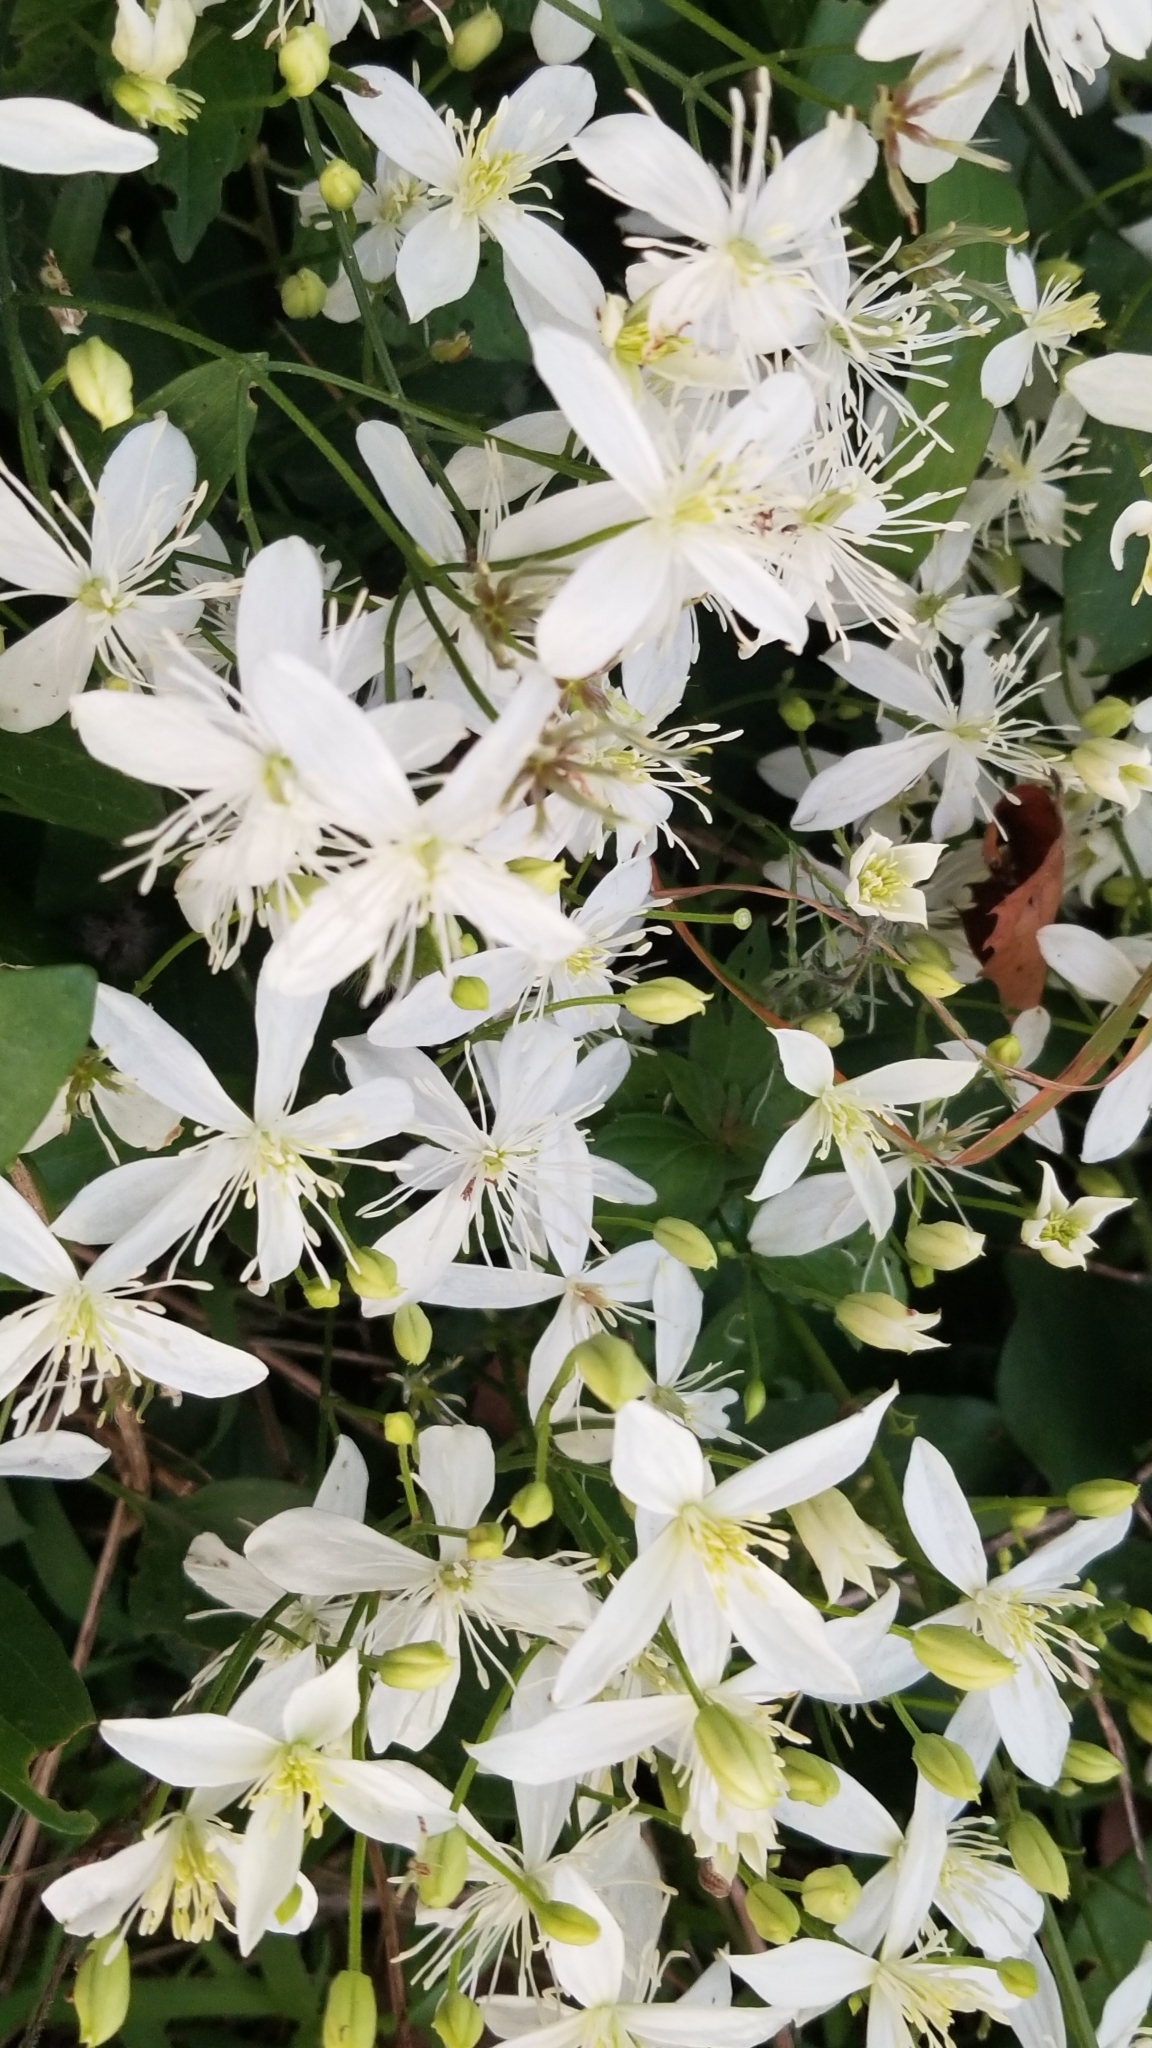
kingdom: Plantae
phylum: Tracheophyta
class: Magnoliopsida
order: Ranunculales
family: Ranunculaceae
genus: Clematis
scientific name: Clematis terniflora
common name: Sweet autumn clematis
